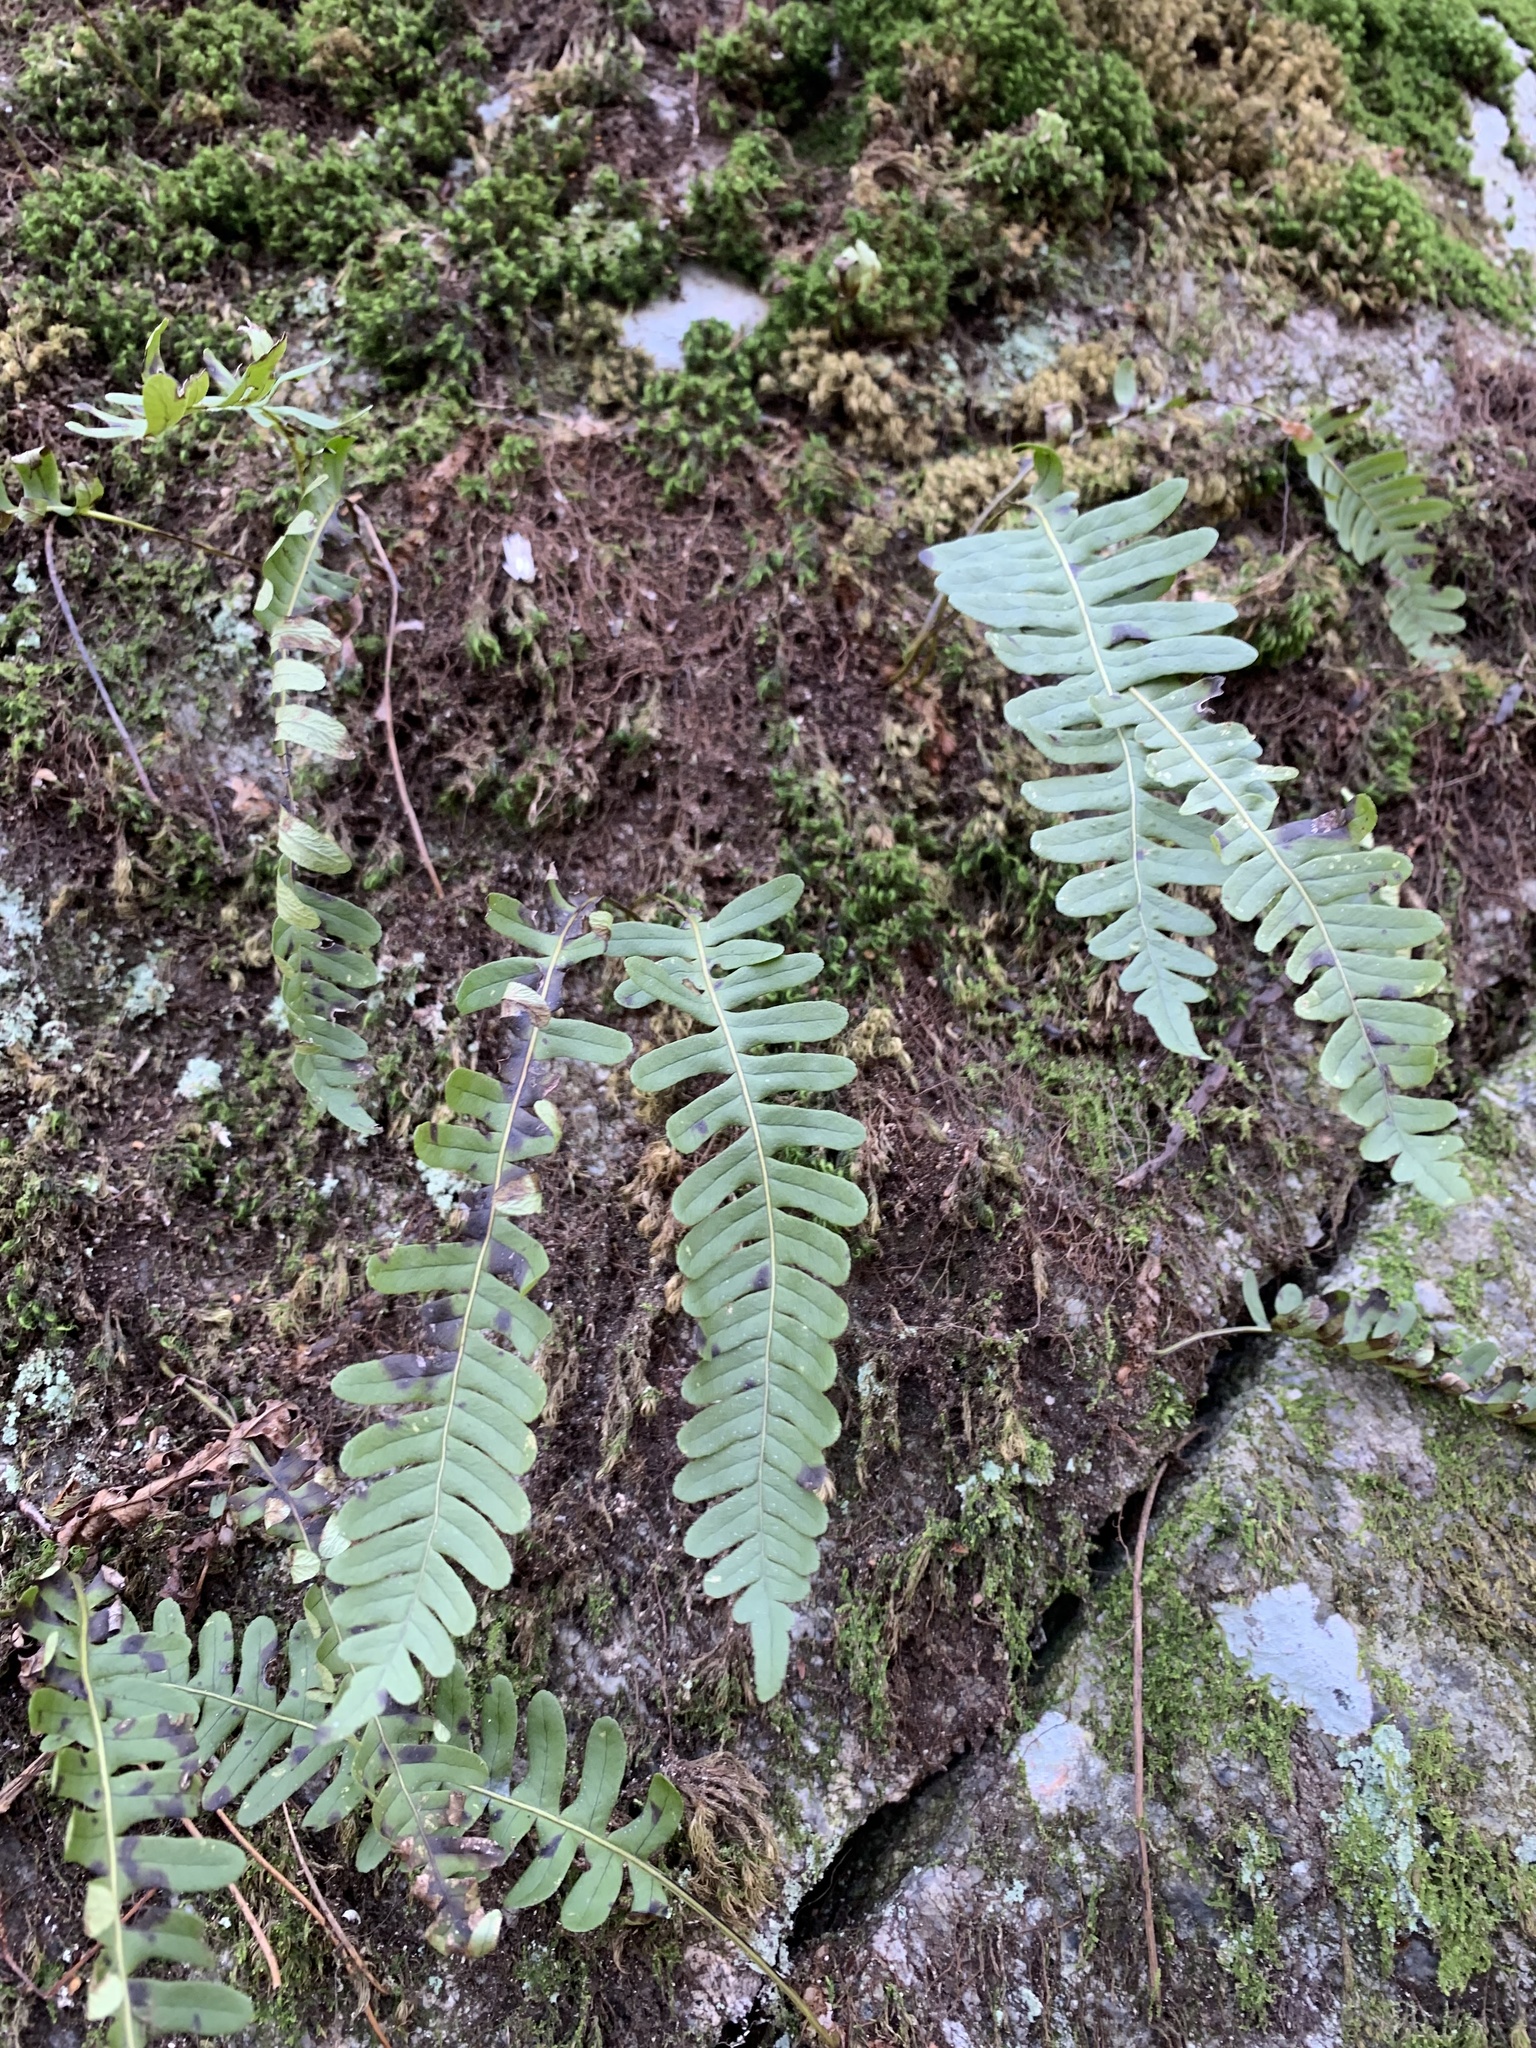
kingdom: Plantae
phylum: Tracheophyta
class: Polypodiopsida
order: Polypodiales
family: Polypodiaceae
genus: Polypodium
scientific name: Polypodium virginianum
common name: American wall fern
